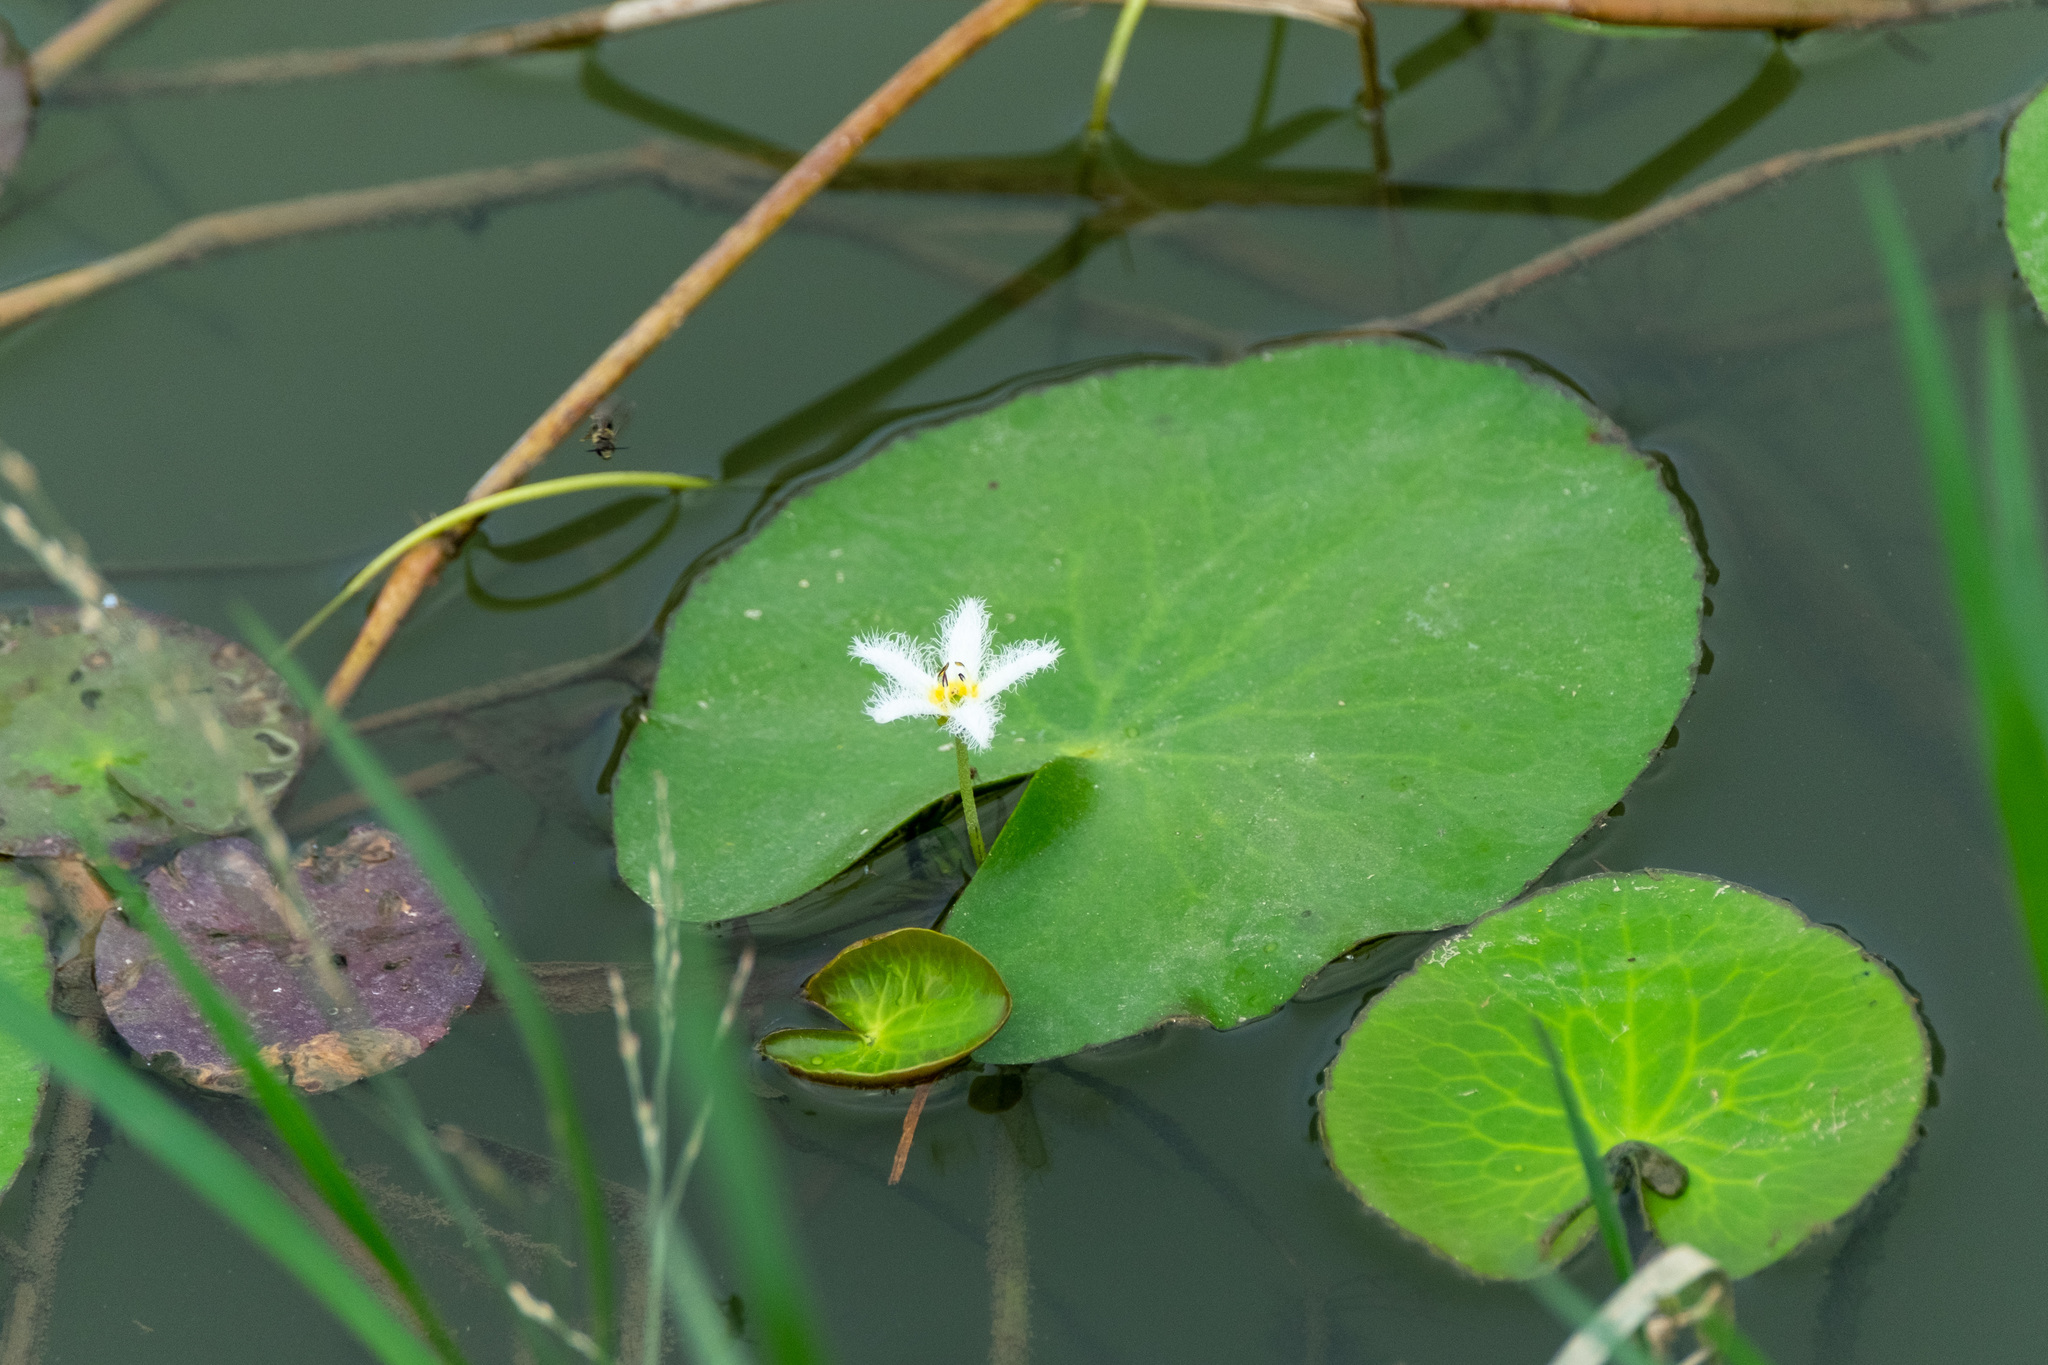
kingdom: Plantae
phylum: Tracheophyta
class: Magnoliopsida
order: Asterales
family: Menyanthaceae
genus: Nymphoides
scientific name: Nymphoides indica
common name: Water-snowflake
